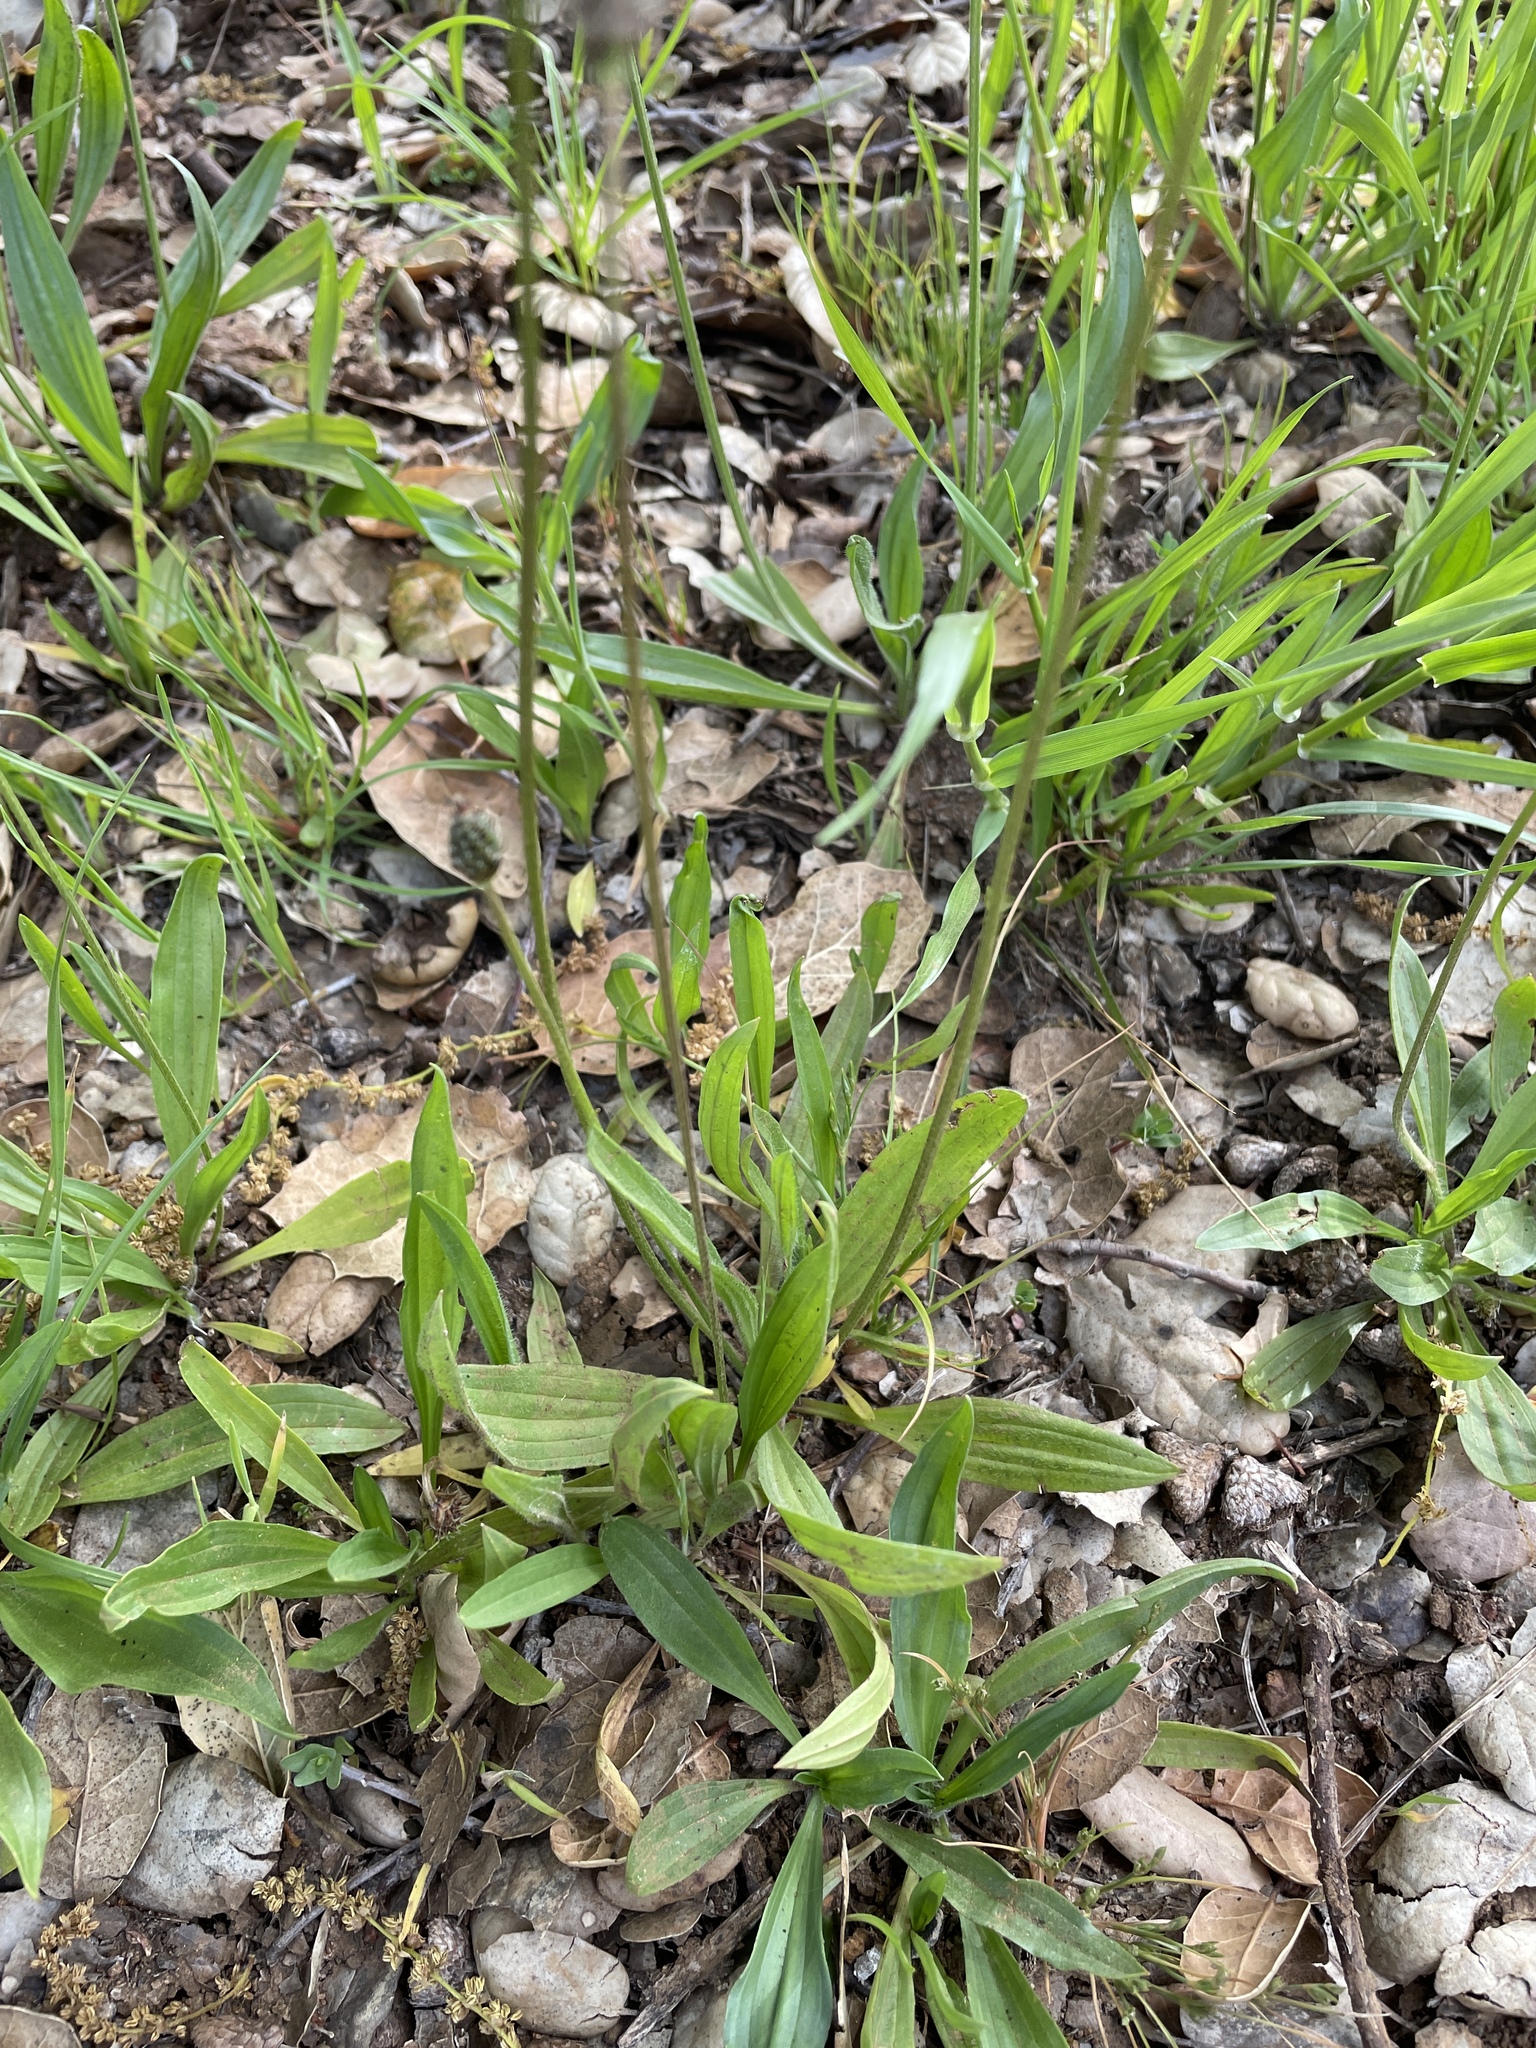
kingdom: Plantae
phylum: Tracheophyta
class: Magnoliopsida
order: Lamiales
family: Plantaginaceae
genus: Plantago
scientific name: Plantago lanceolata
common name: Ribwort plantain
